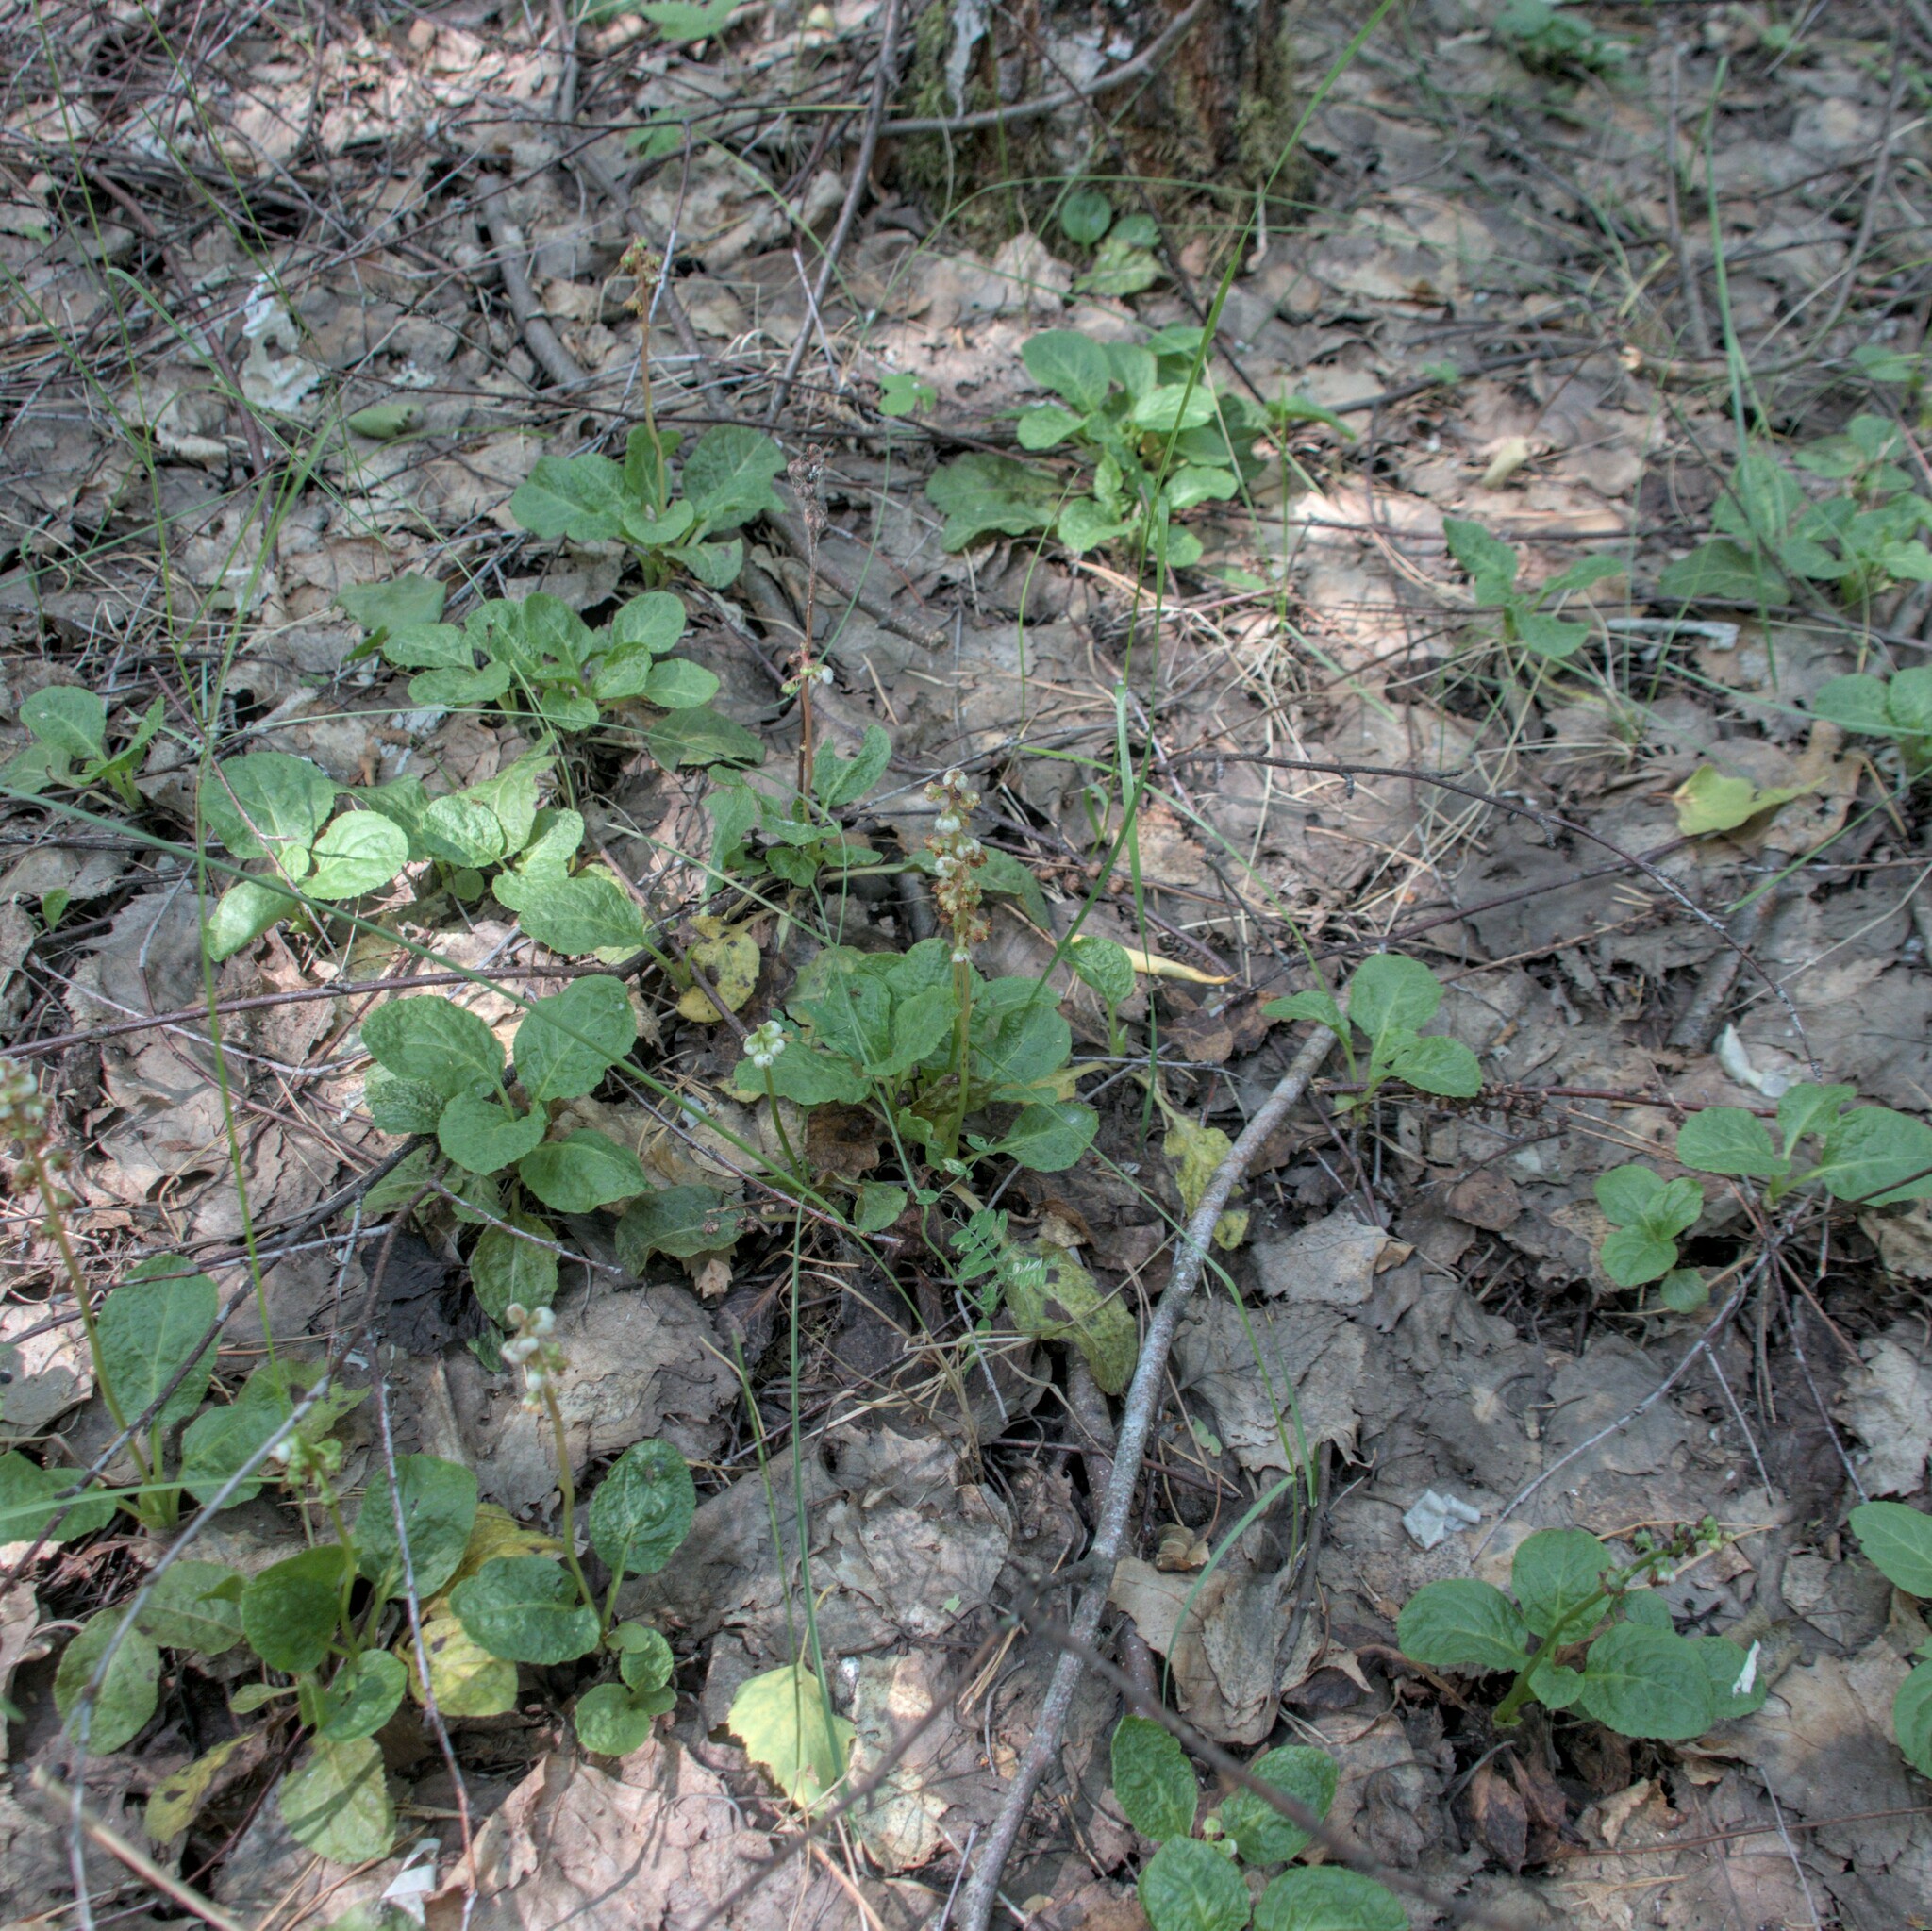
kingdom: Plantae
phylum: Tracheophyta
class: Magnoliopsida
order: Ericales
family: Ericaceae
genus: Pyrola
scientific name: Pyrola minor
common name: Common wintergreen
